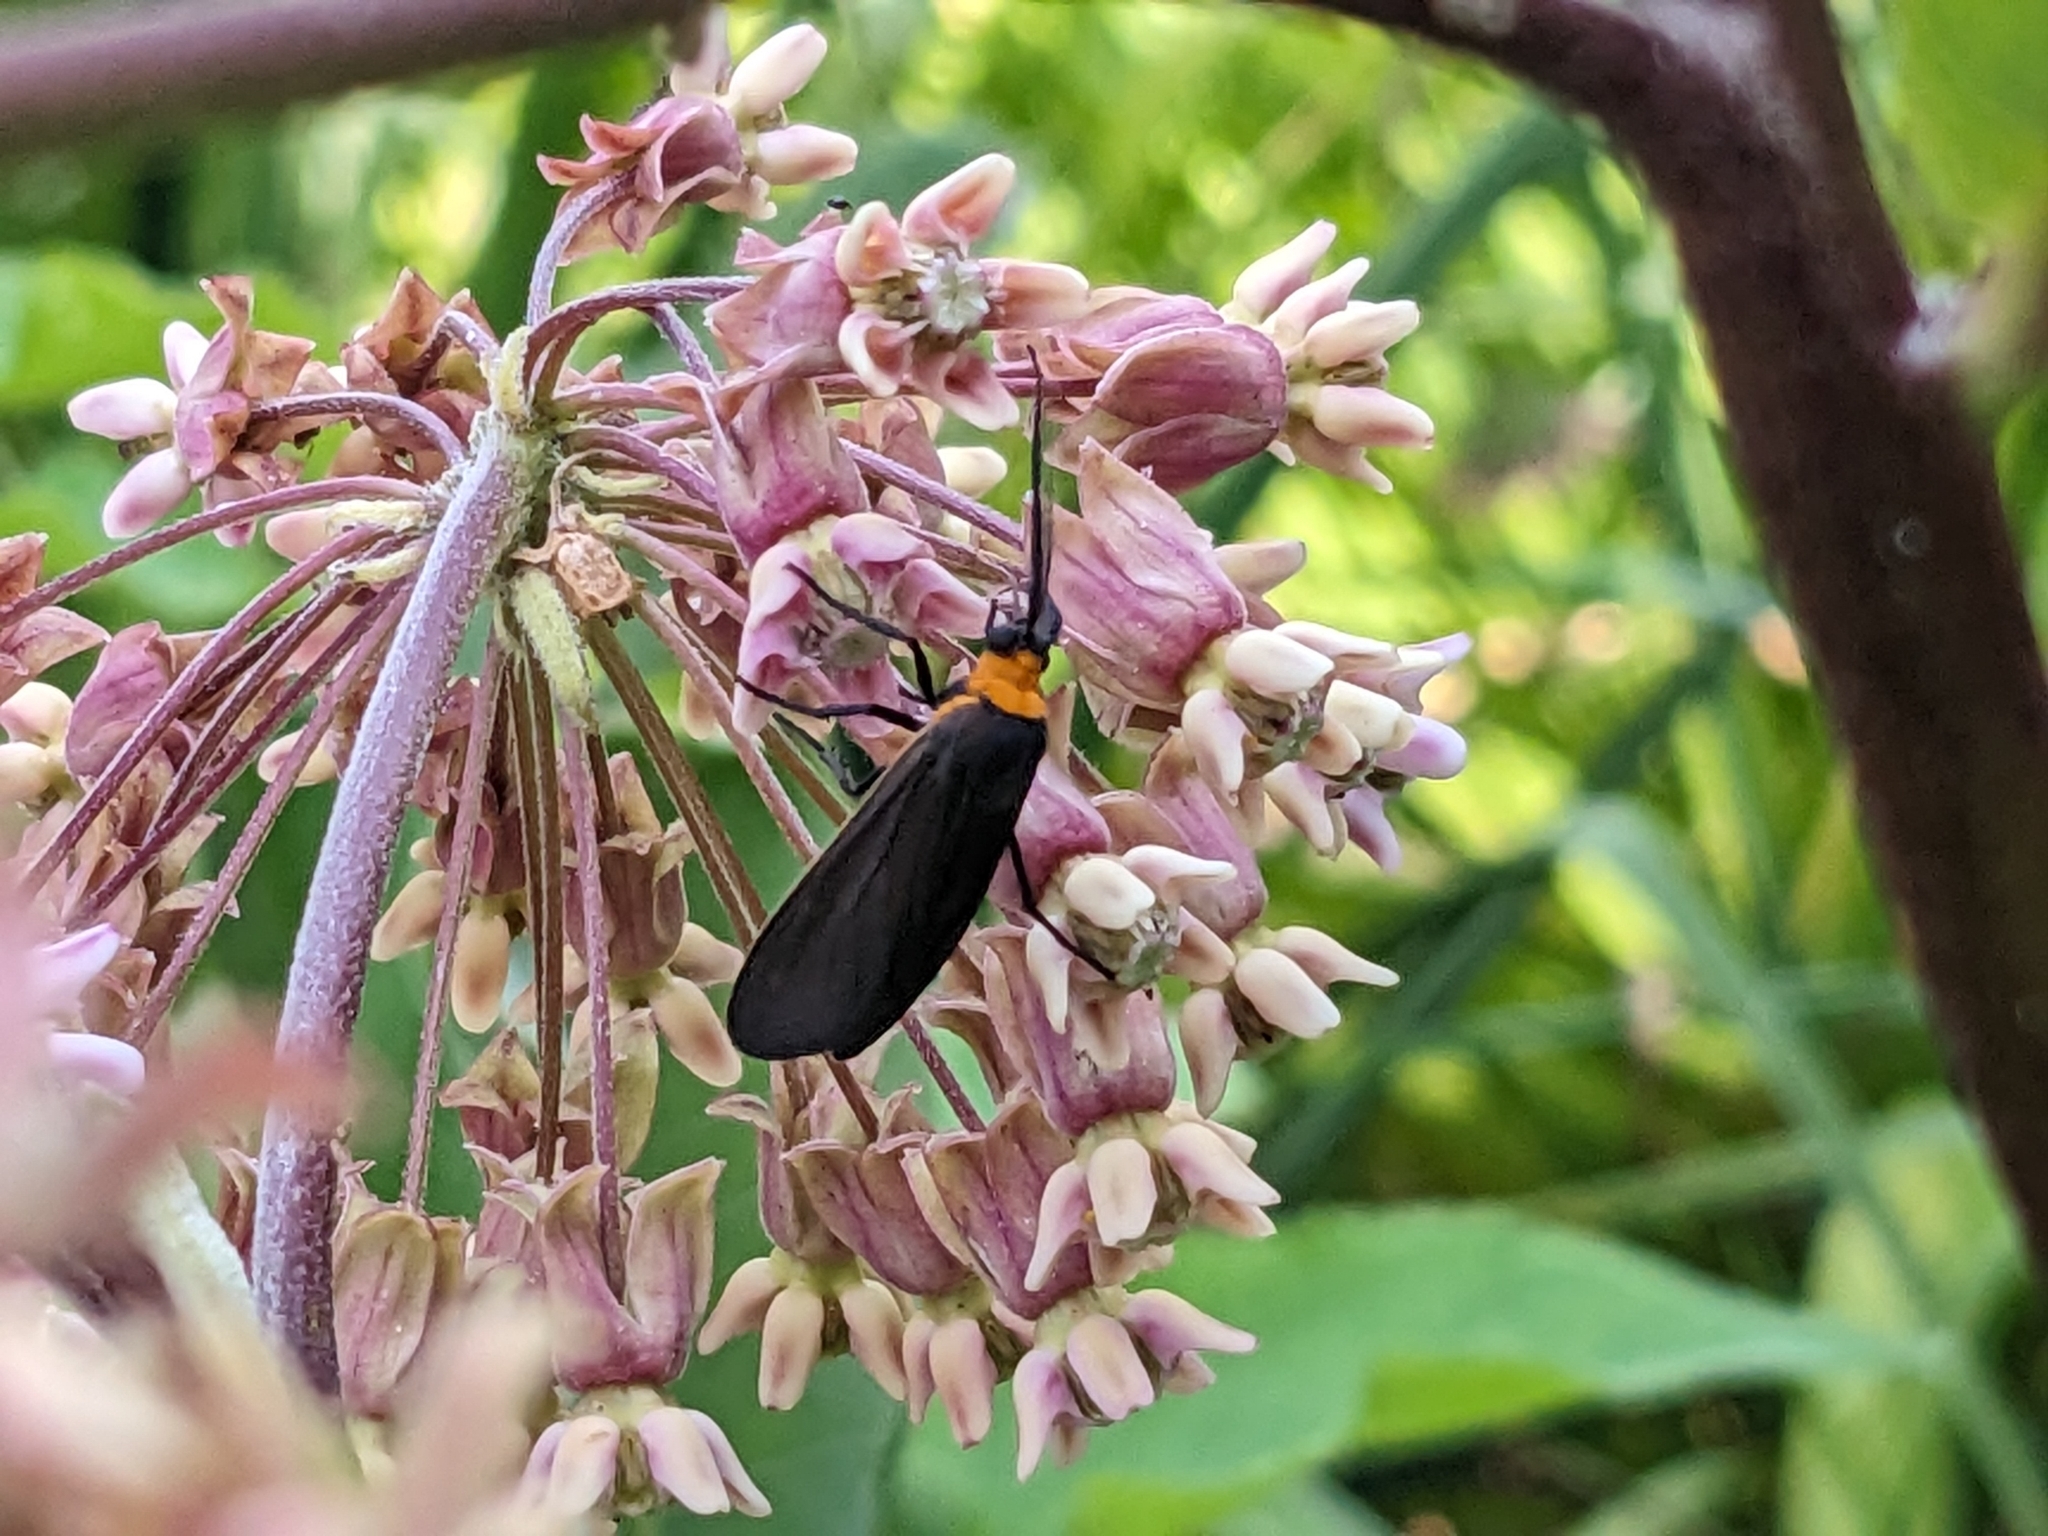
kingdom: Animalia
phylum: Arthropoda
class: Insecta
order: Lepidoptera
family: Erebidae
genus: Cisseps
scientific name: Cisseps fulvicollis
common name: Yellow-collared scape moth
